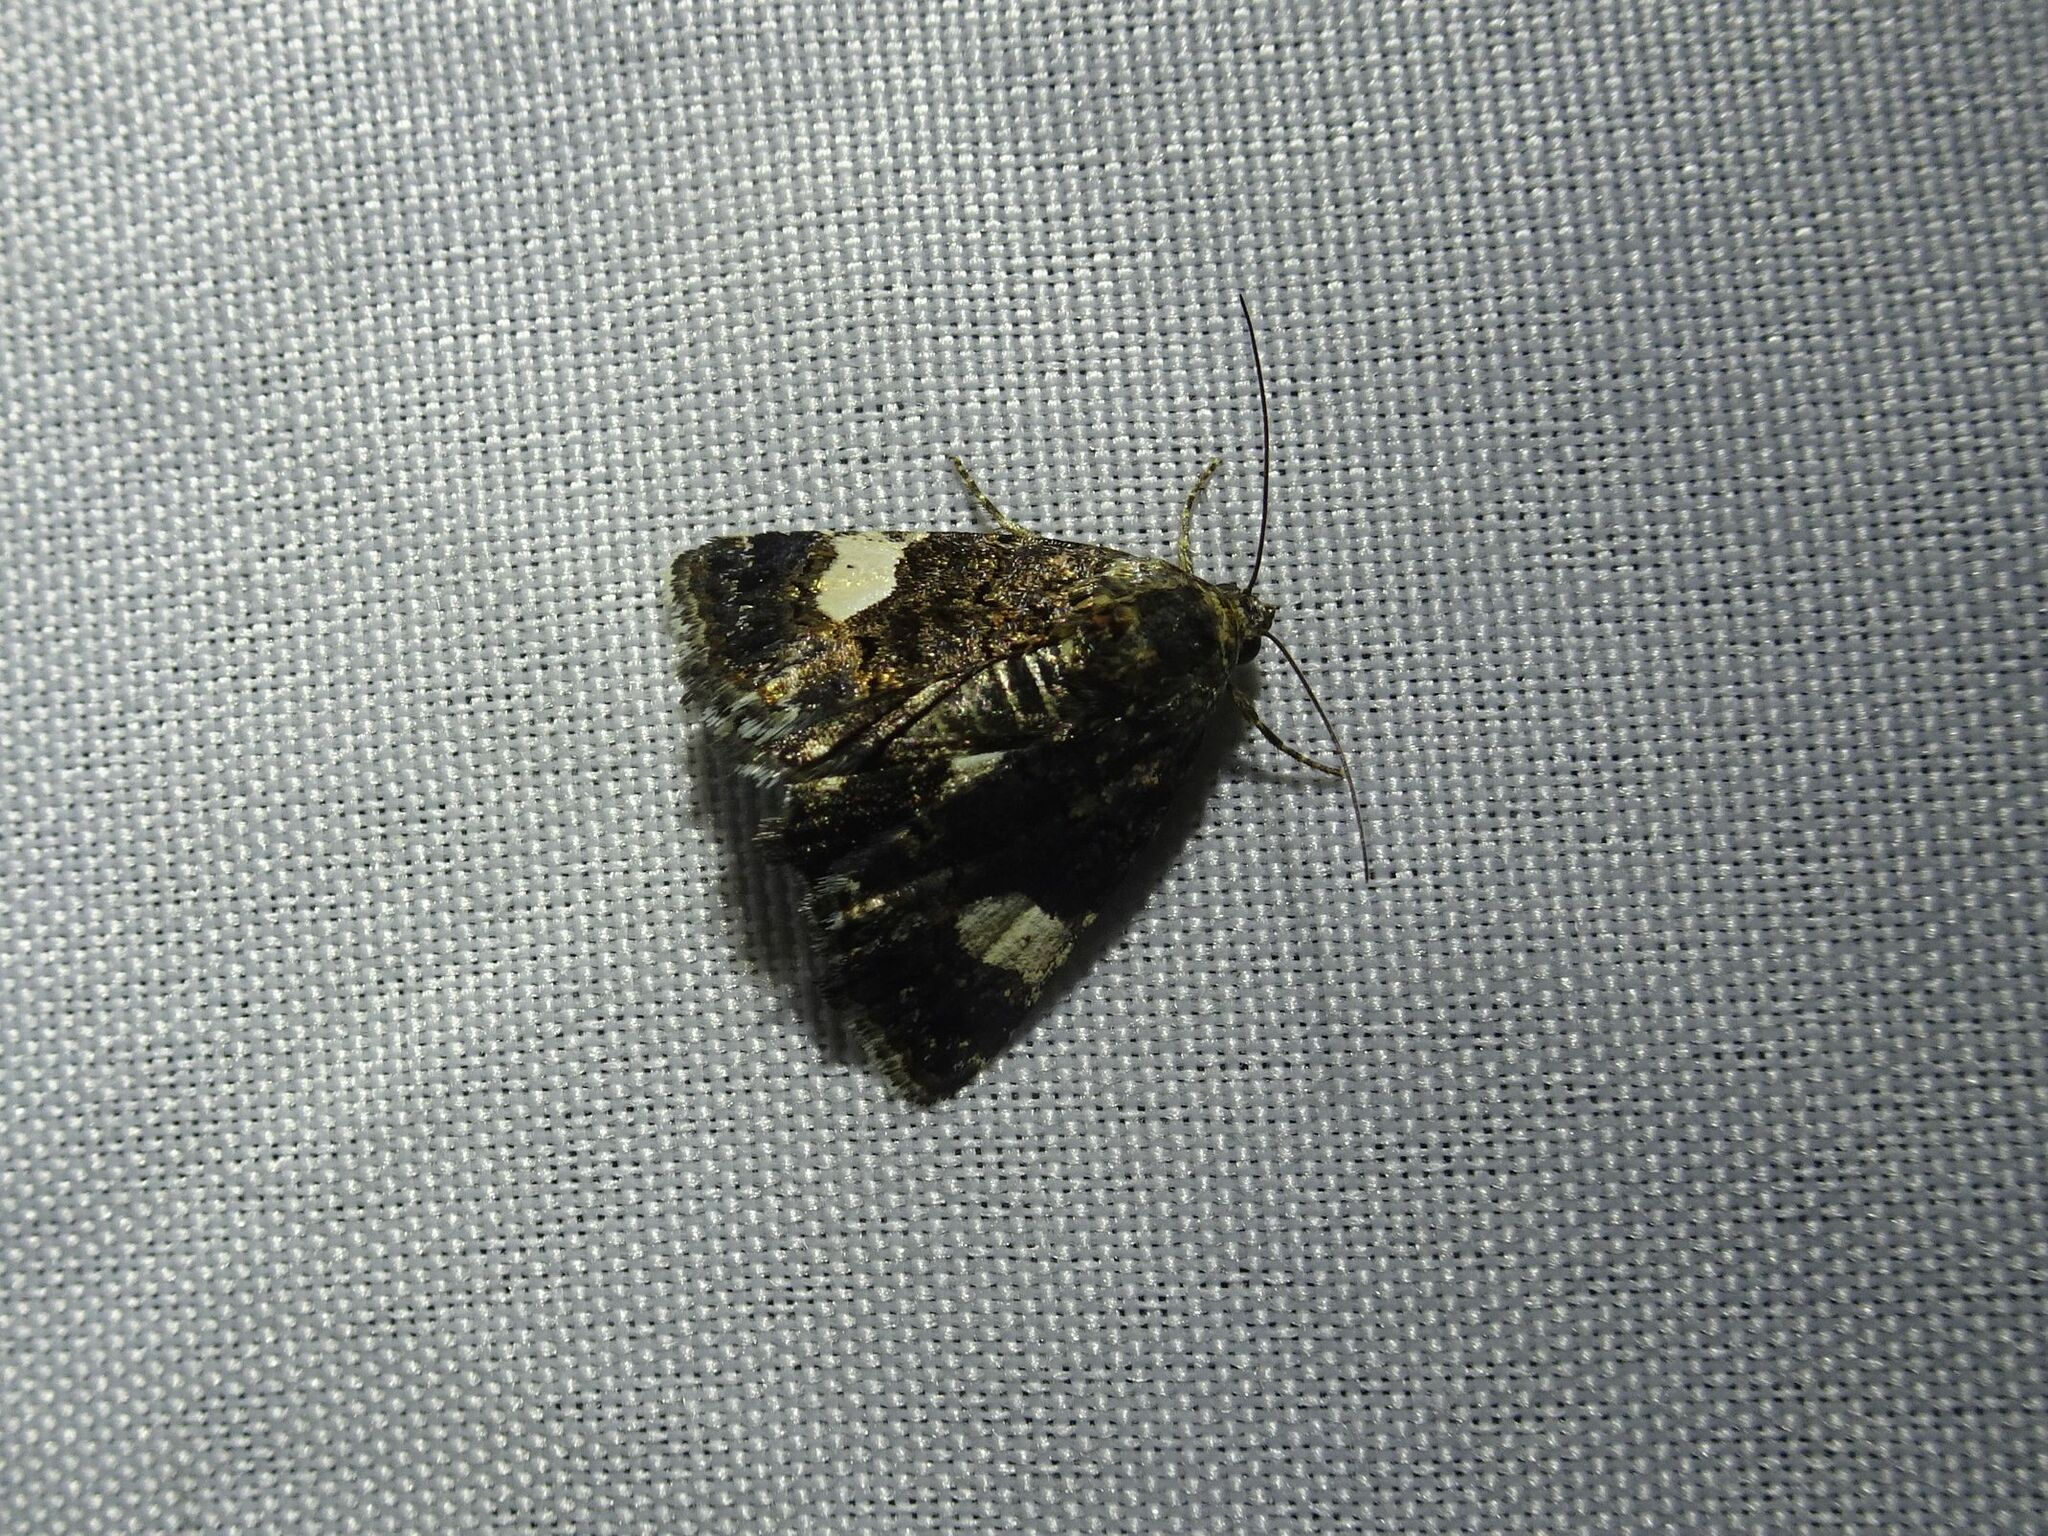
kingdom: Animalia
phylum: Arthropoda
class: Insecta
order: Lepidoptera
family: Erebidae
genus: Tyta
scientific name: Tyta luctuosa
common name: Four-spotted
